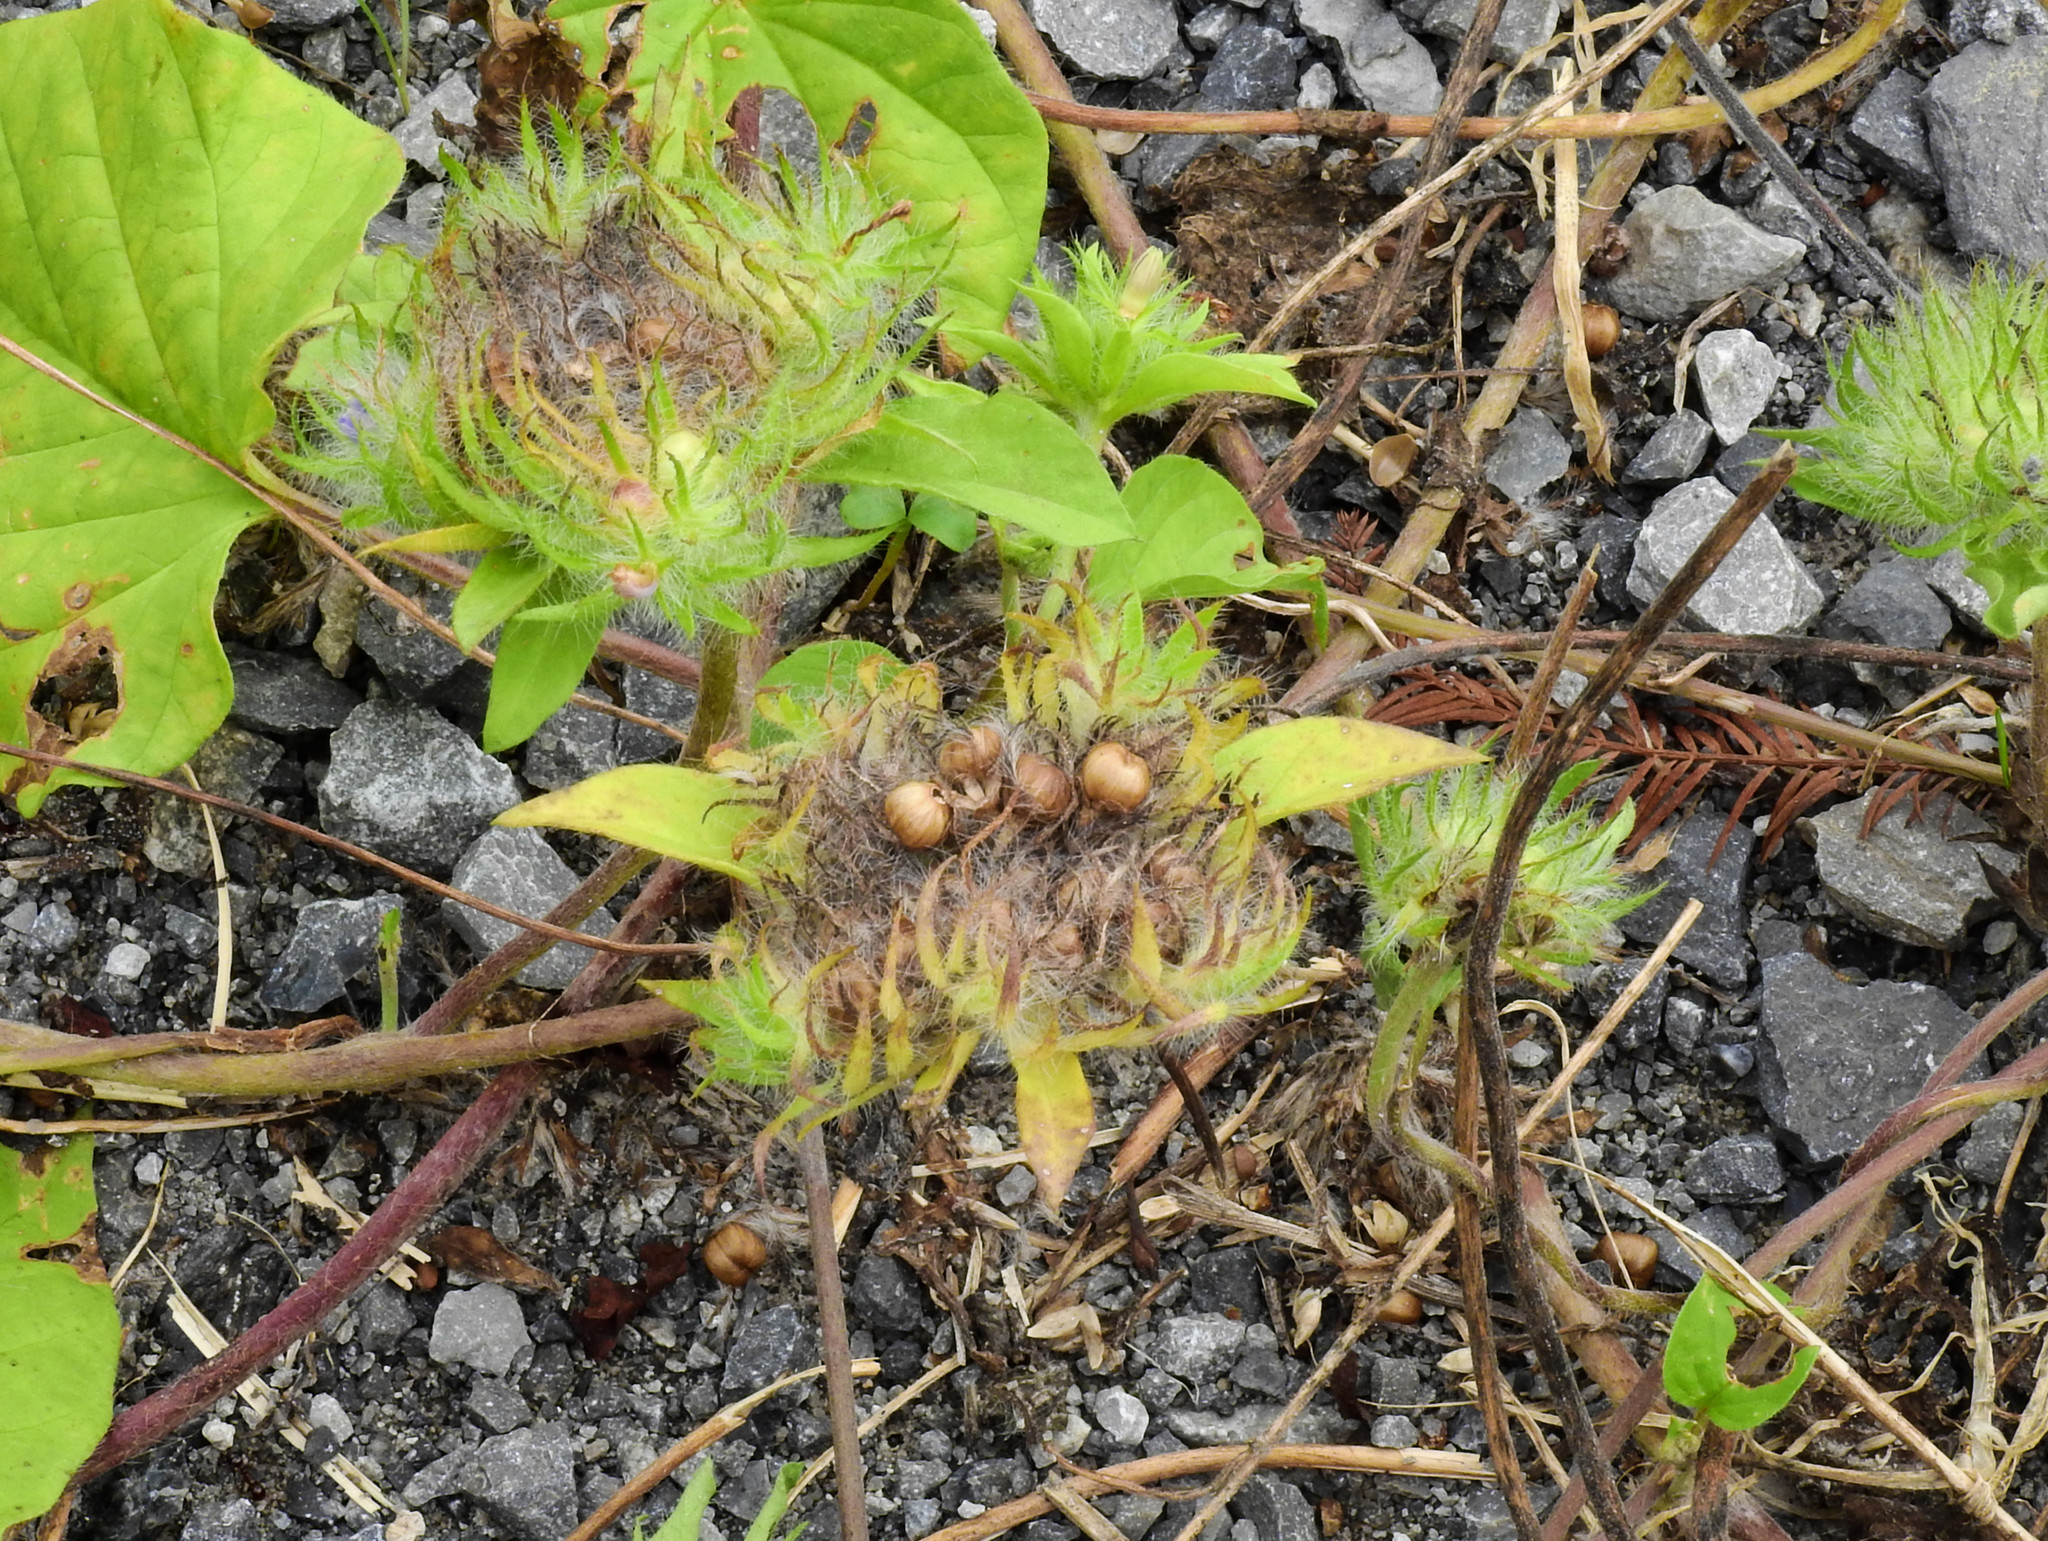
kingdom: Plantae
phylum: Tracheophyta
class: Magnoliopsida
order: Solanales
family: Convolvulaceae
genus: Jacquemontia
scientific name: Jacquemontia tamnifolia
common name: Hairy clustervine
